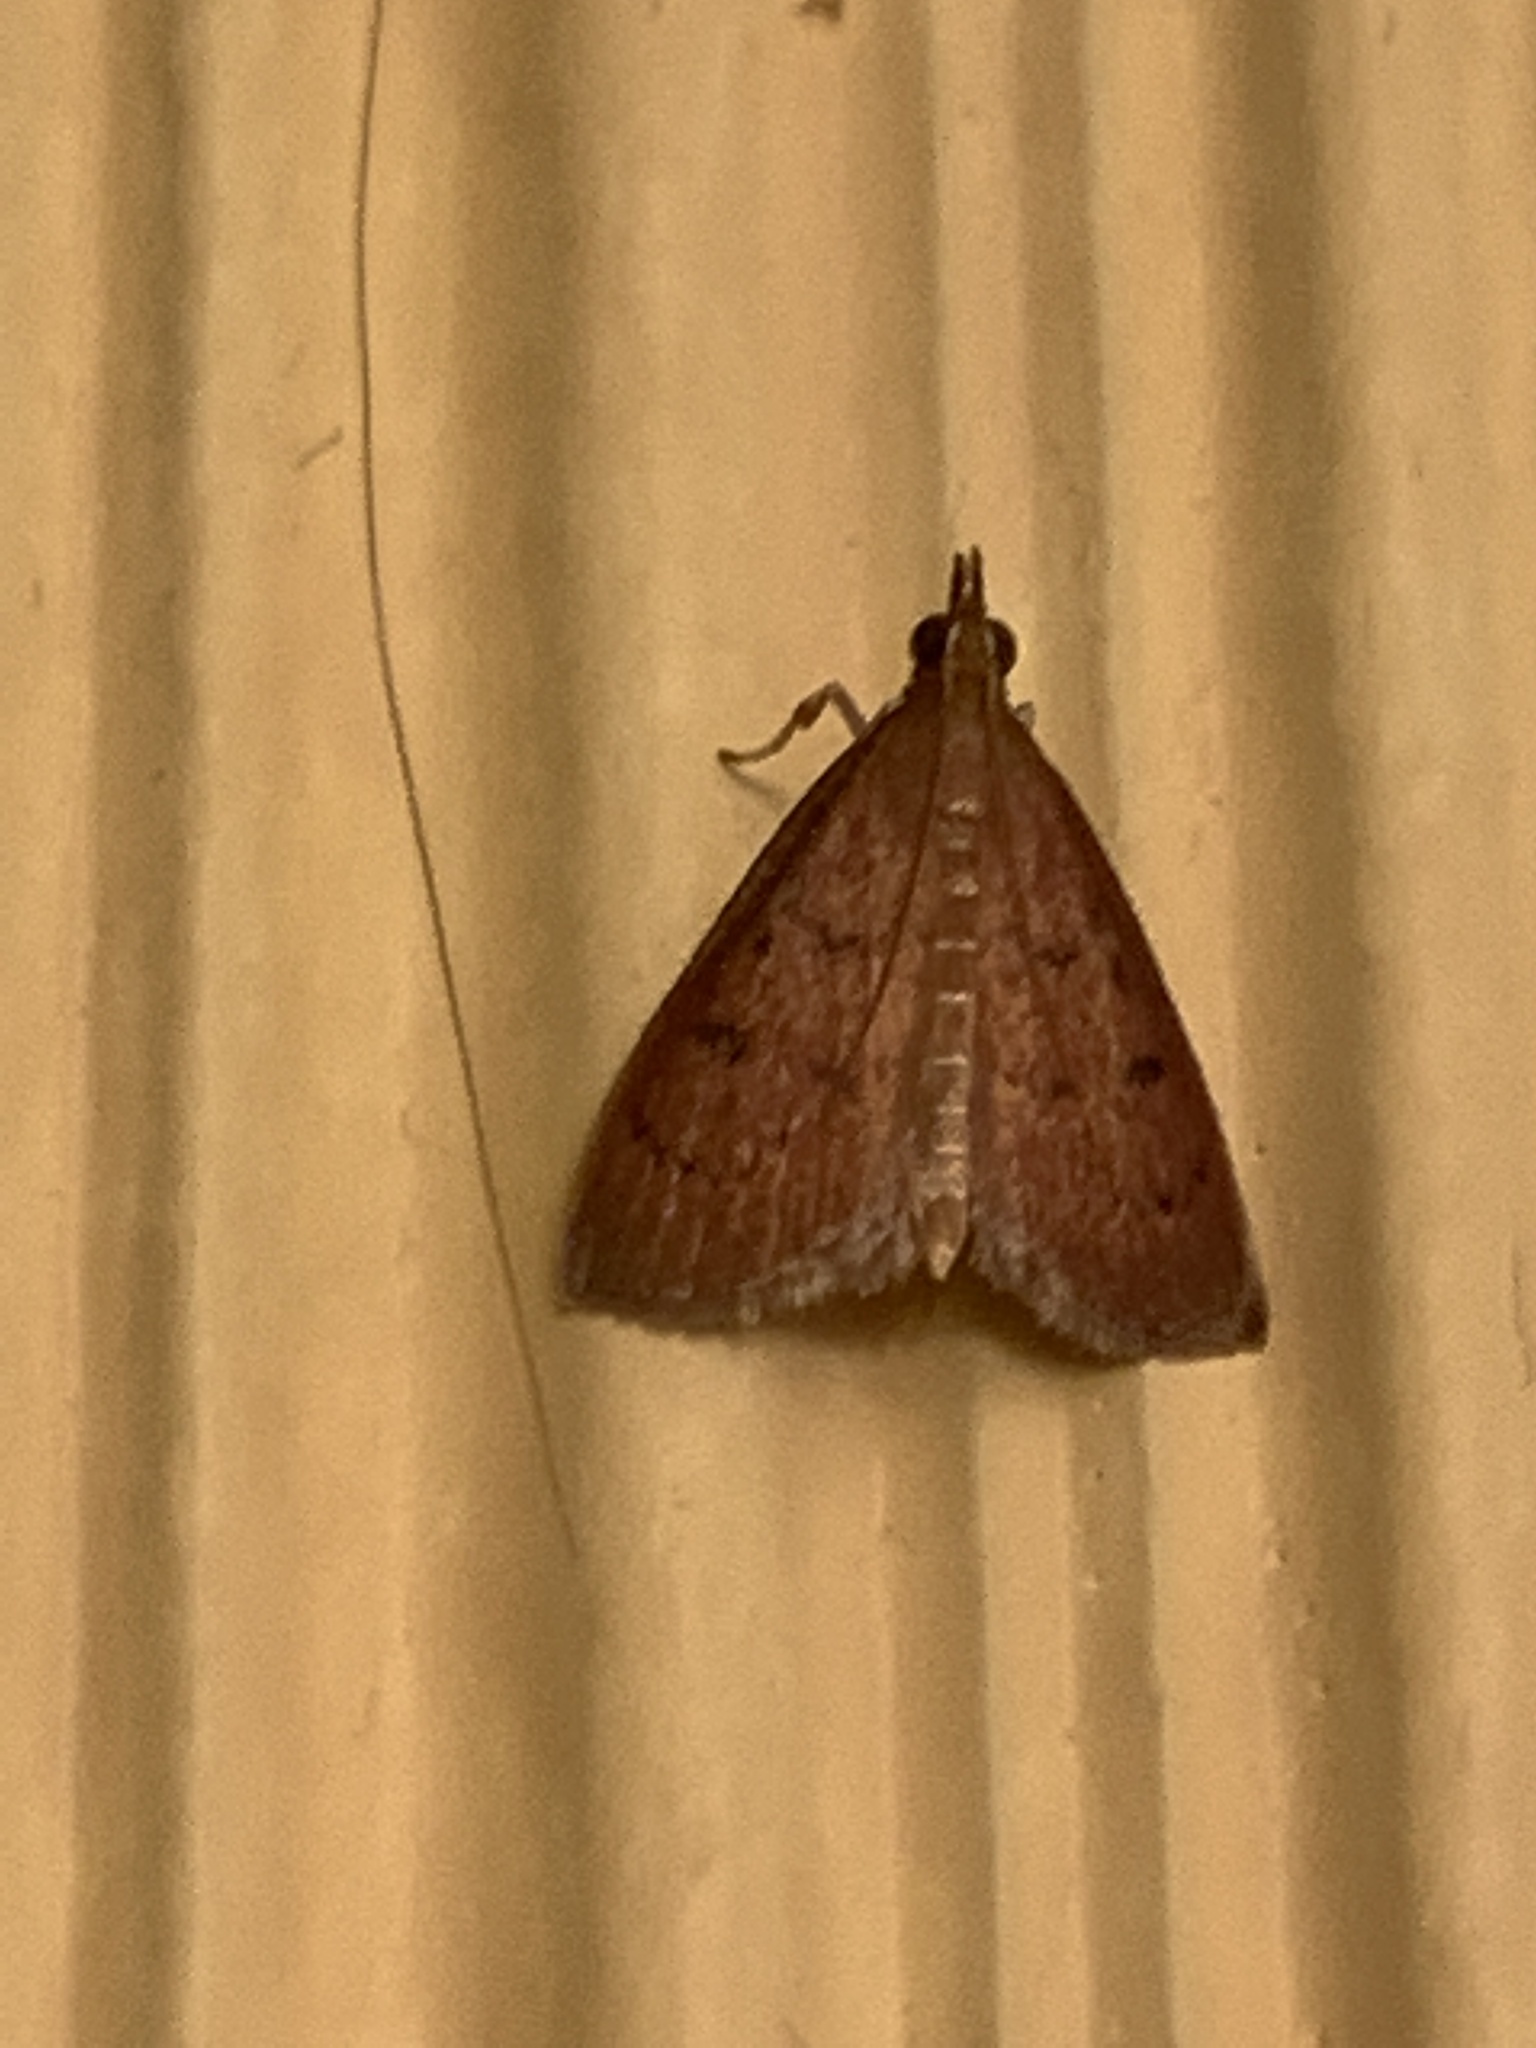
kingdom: Animalia
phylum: Arthropoda
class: Insecta
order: Lepidoptera
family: Crambidae
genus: Oenobotys
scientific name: Oenobotys vinotinctalis
